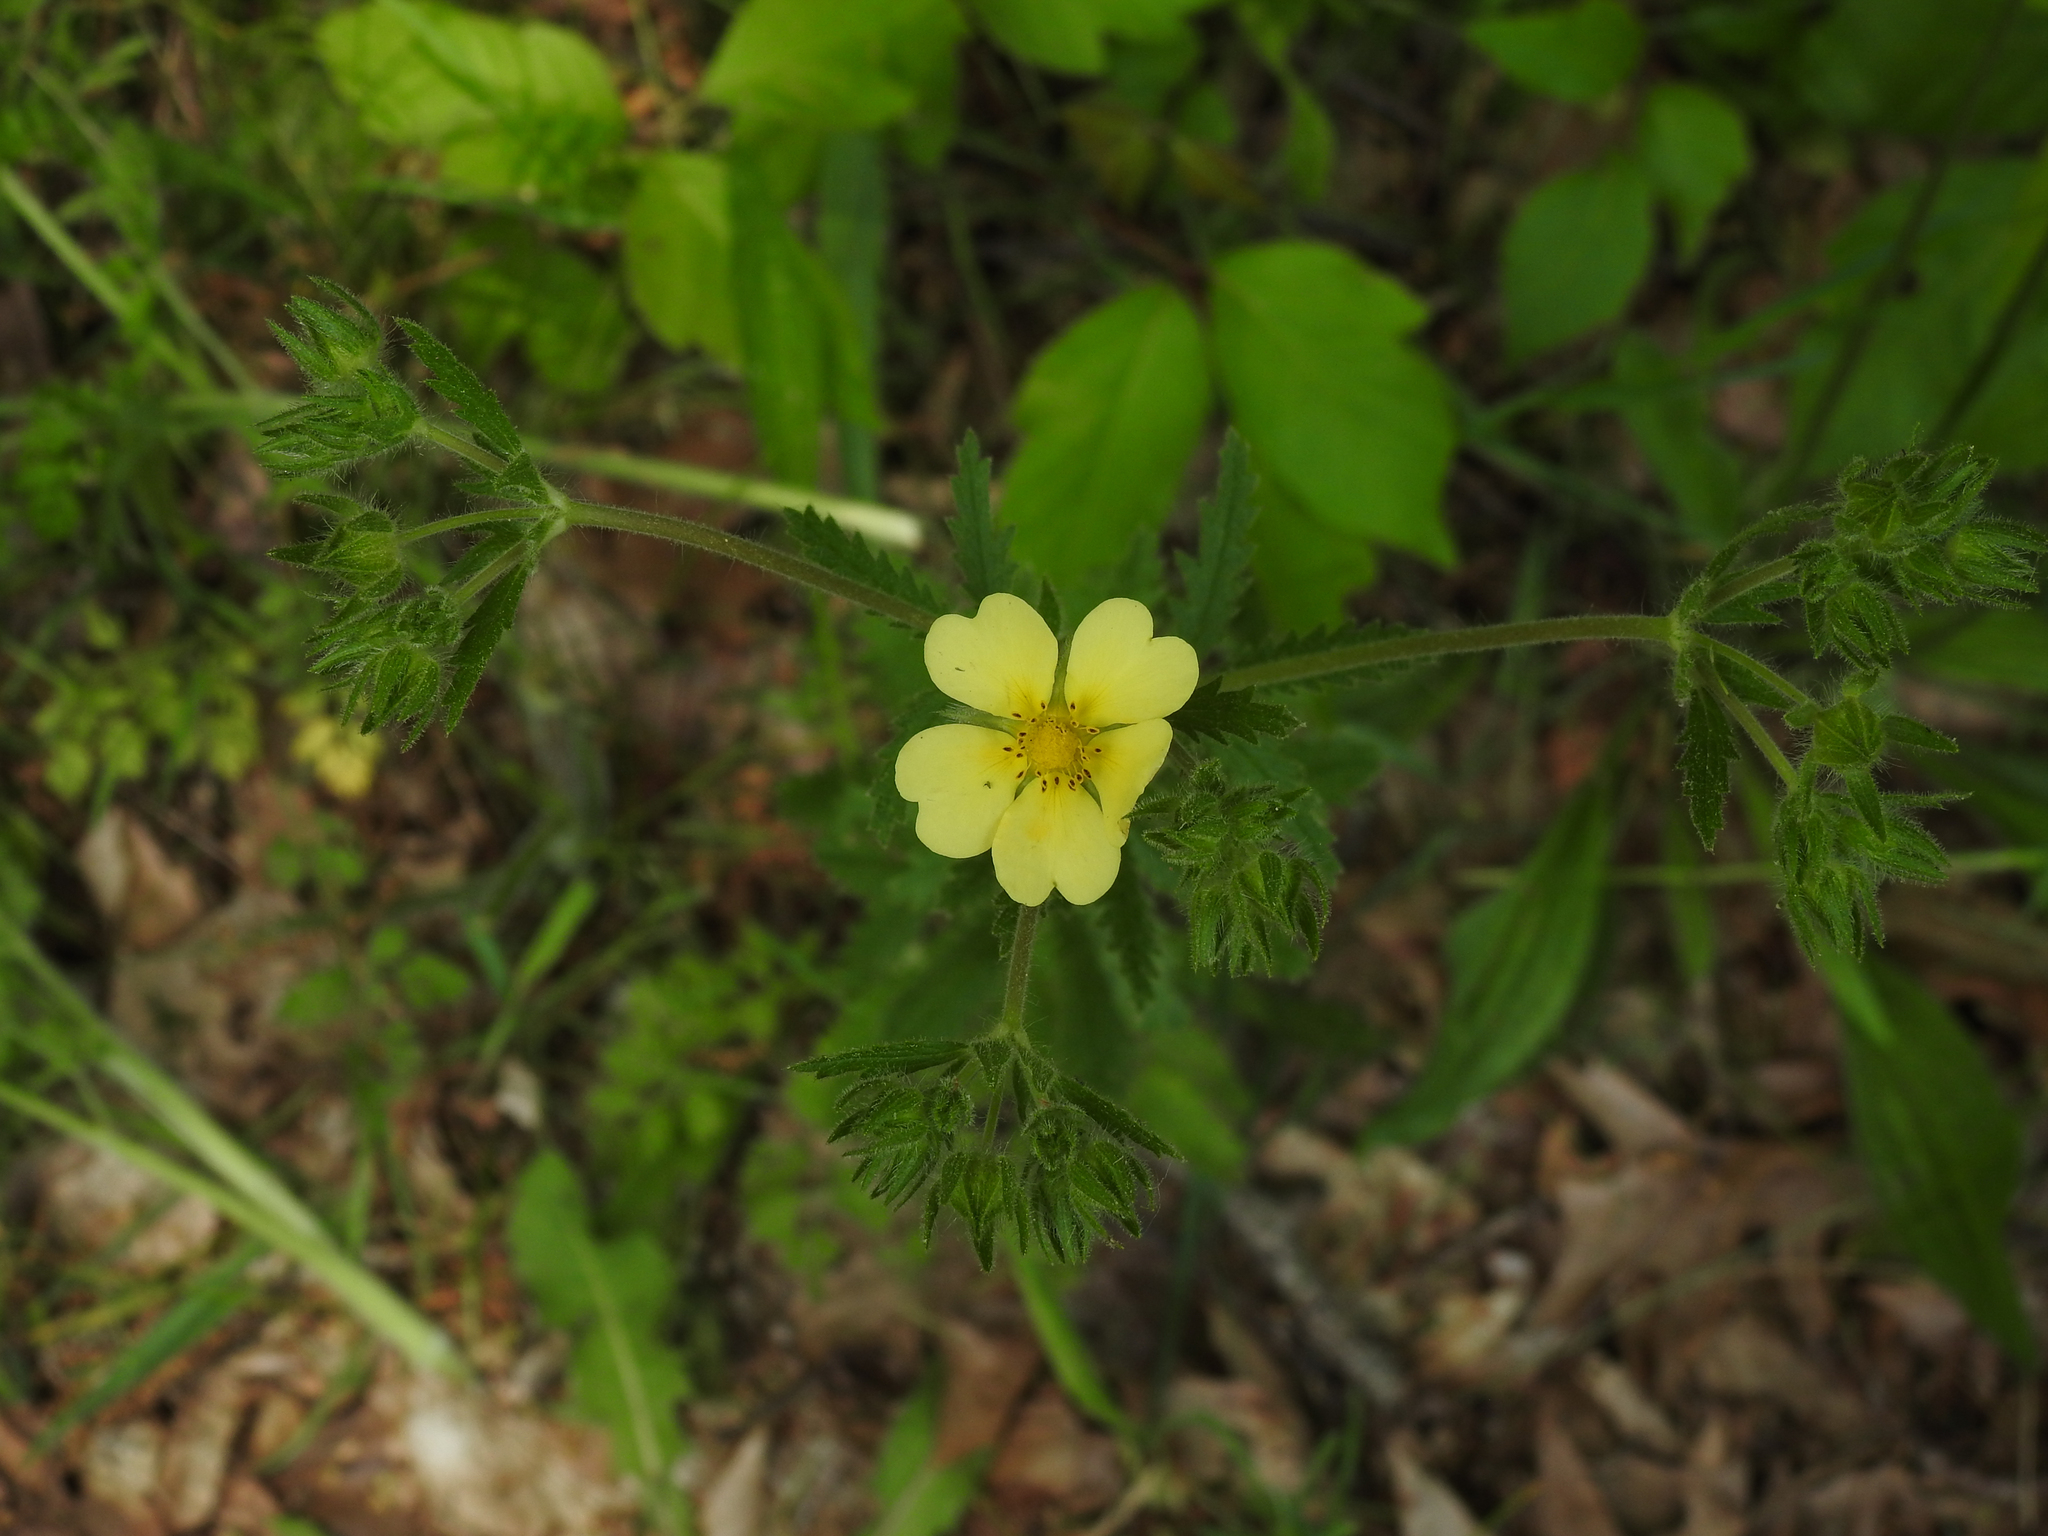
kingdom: Plantae
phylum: Tracheophyta
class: Magnoliopsida
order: Rosales
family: Rosaceae
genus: Potentilla
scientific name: Potentilla recta
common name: Sulphur cinquefoil
